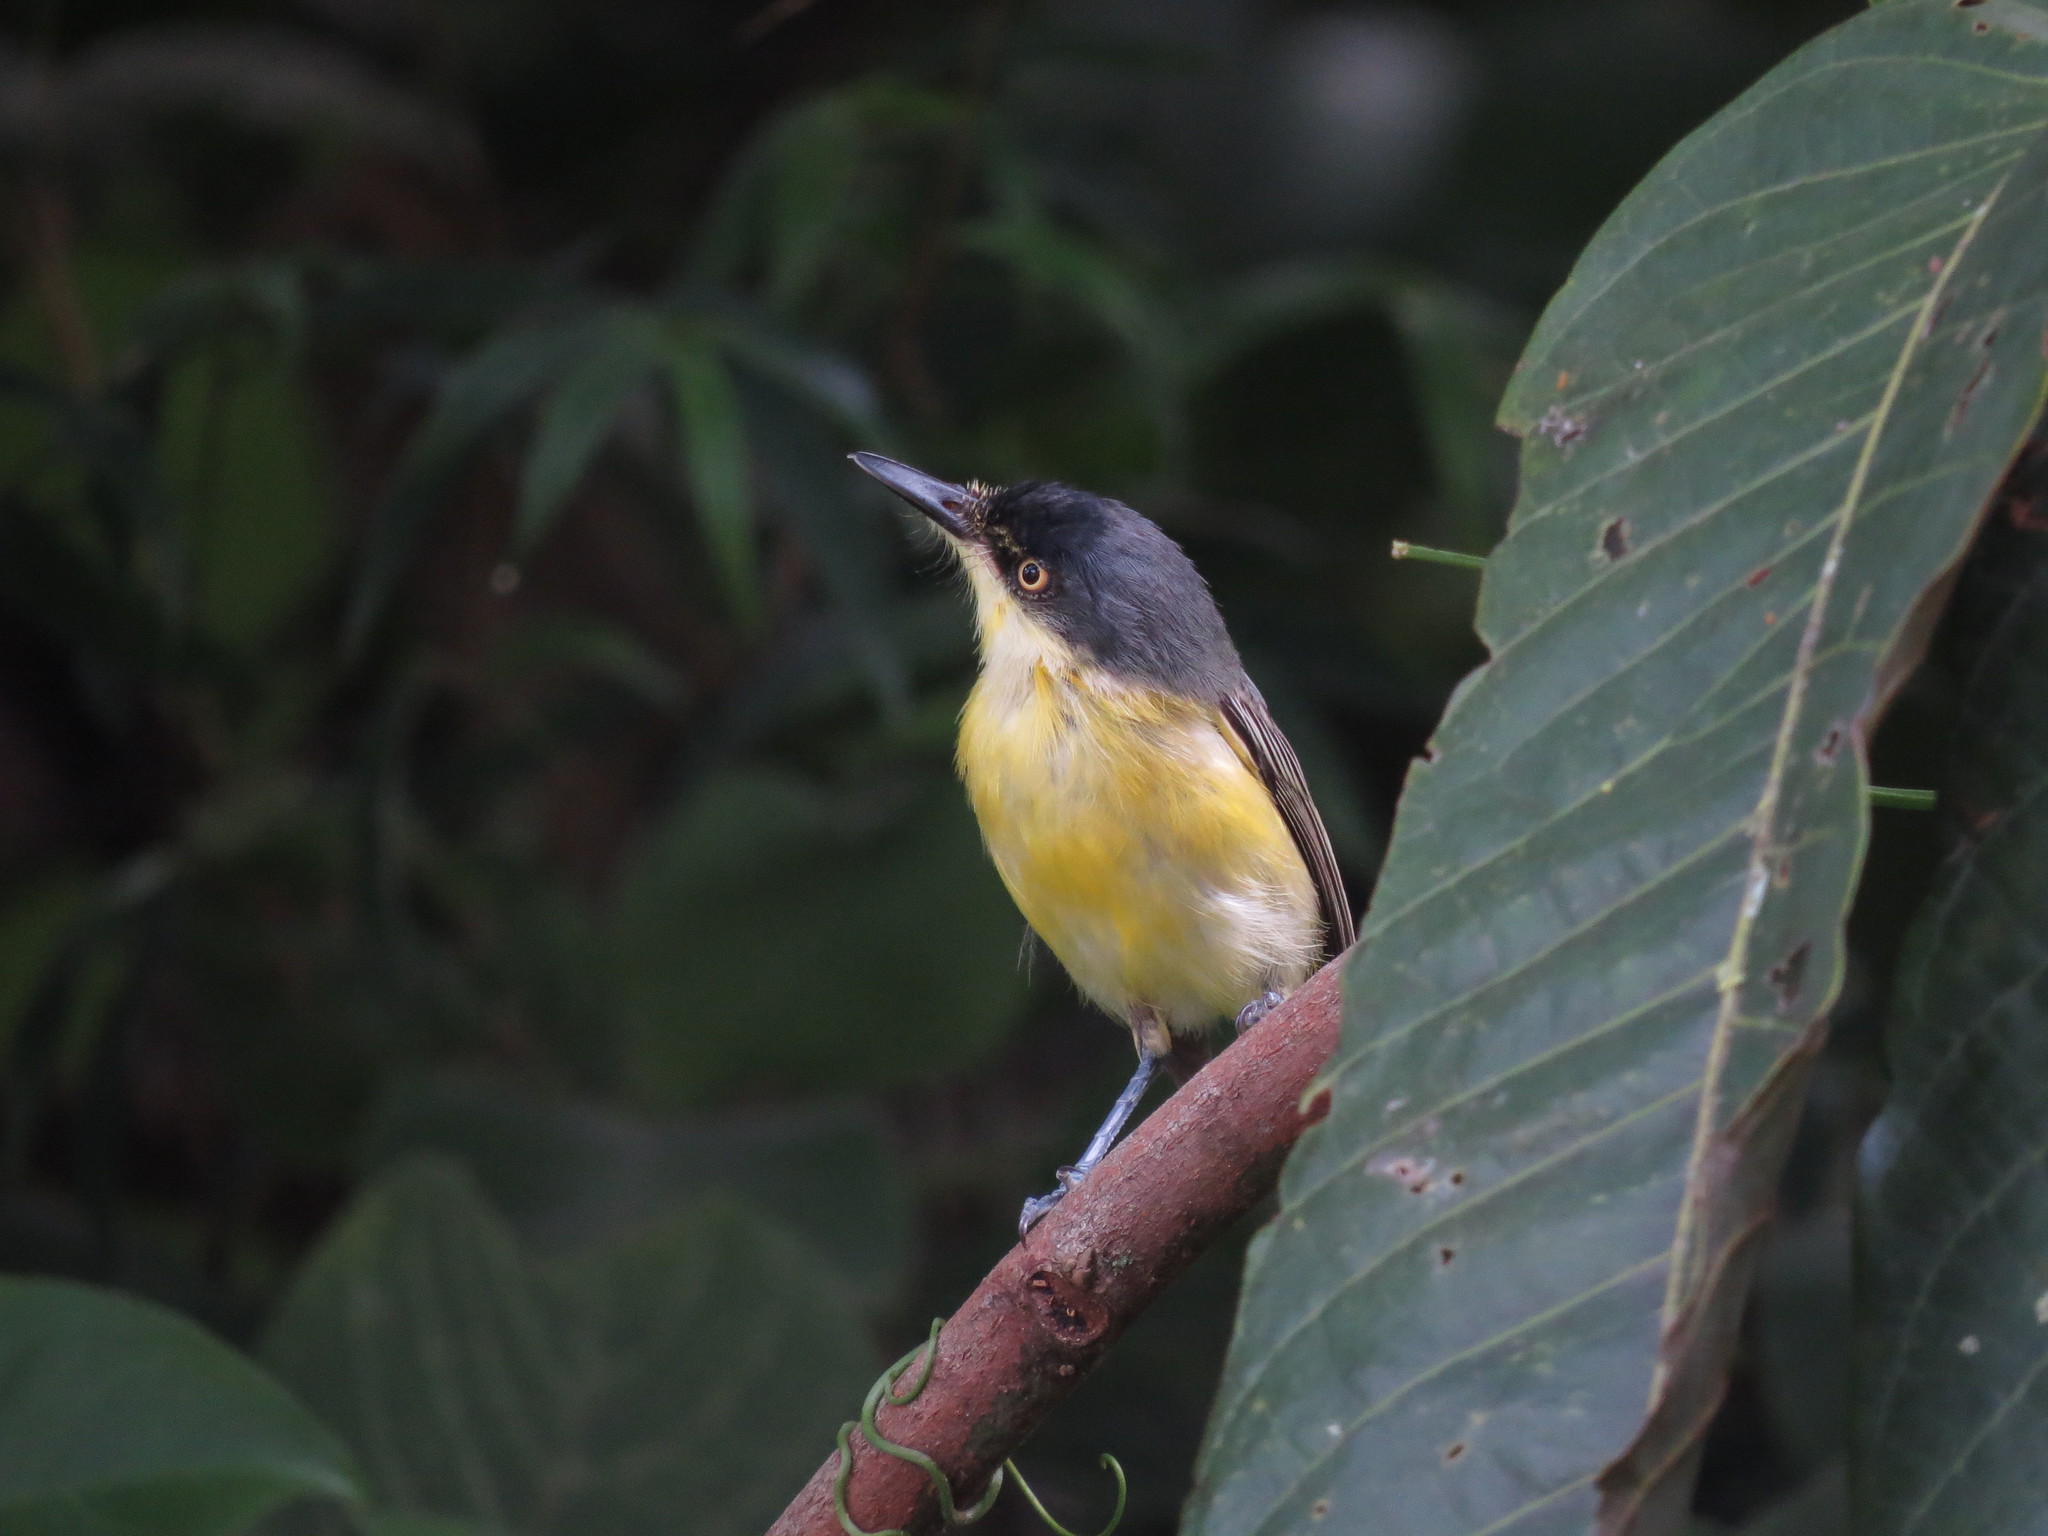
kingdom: Animalia
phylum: Chordata
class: Aves
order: Passeriformes
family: Tyrannidae
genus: Todirostrum
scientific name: Todirostrum cinereum
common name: Common tody-flycatcher
